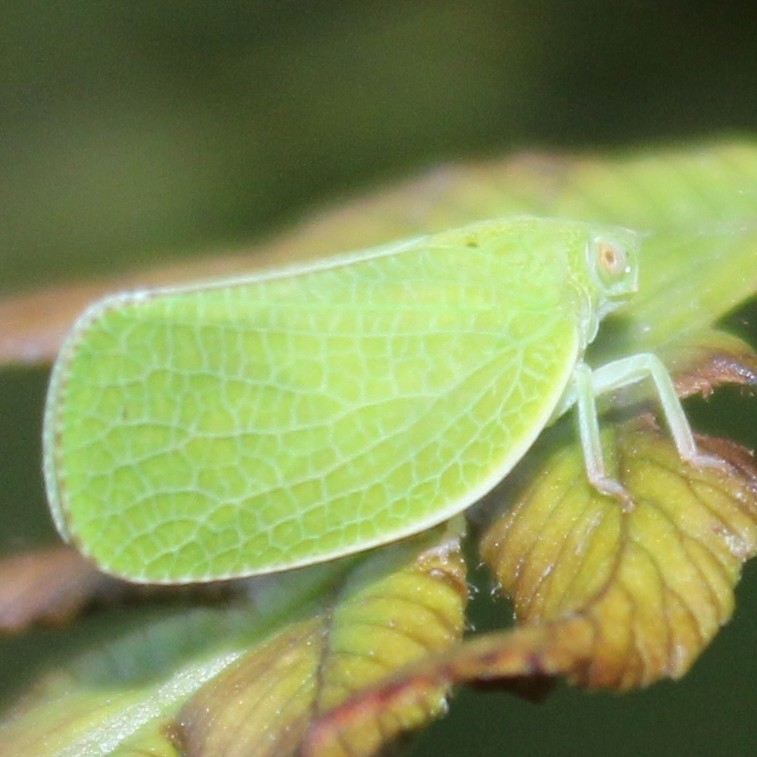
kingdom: Animalia
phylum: Arthropoda
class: Insecta
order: Hemiptera
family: Acanaloniidae
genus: Acanalonia
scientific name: Acanalonia conica
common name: Green cone-headed planthopper
